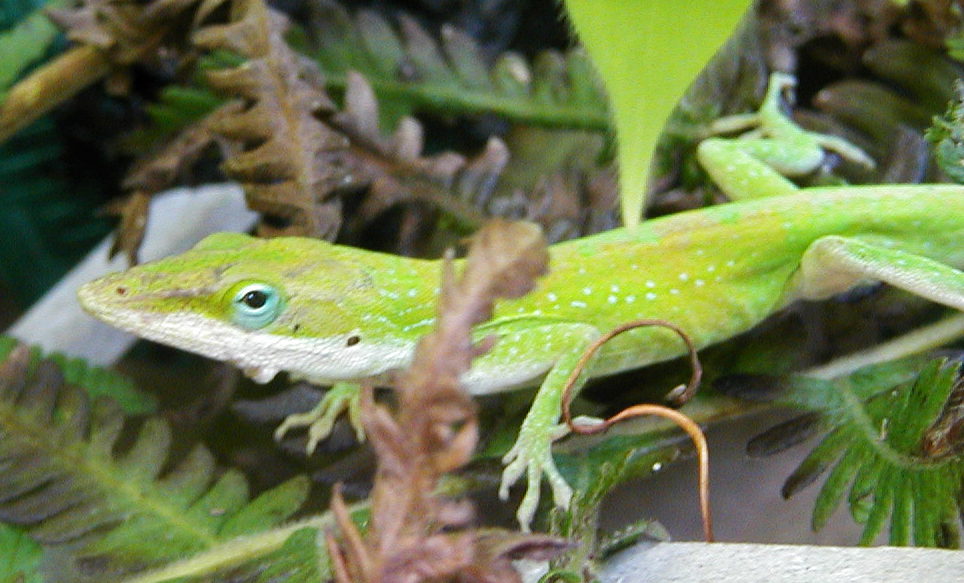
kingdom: Animalia
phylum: Chordata
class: Squamata
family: Dactyloidae
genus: Anolis
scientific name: Anolis carolinensis
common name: Green anole
